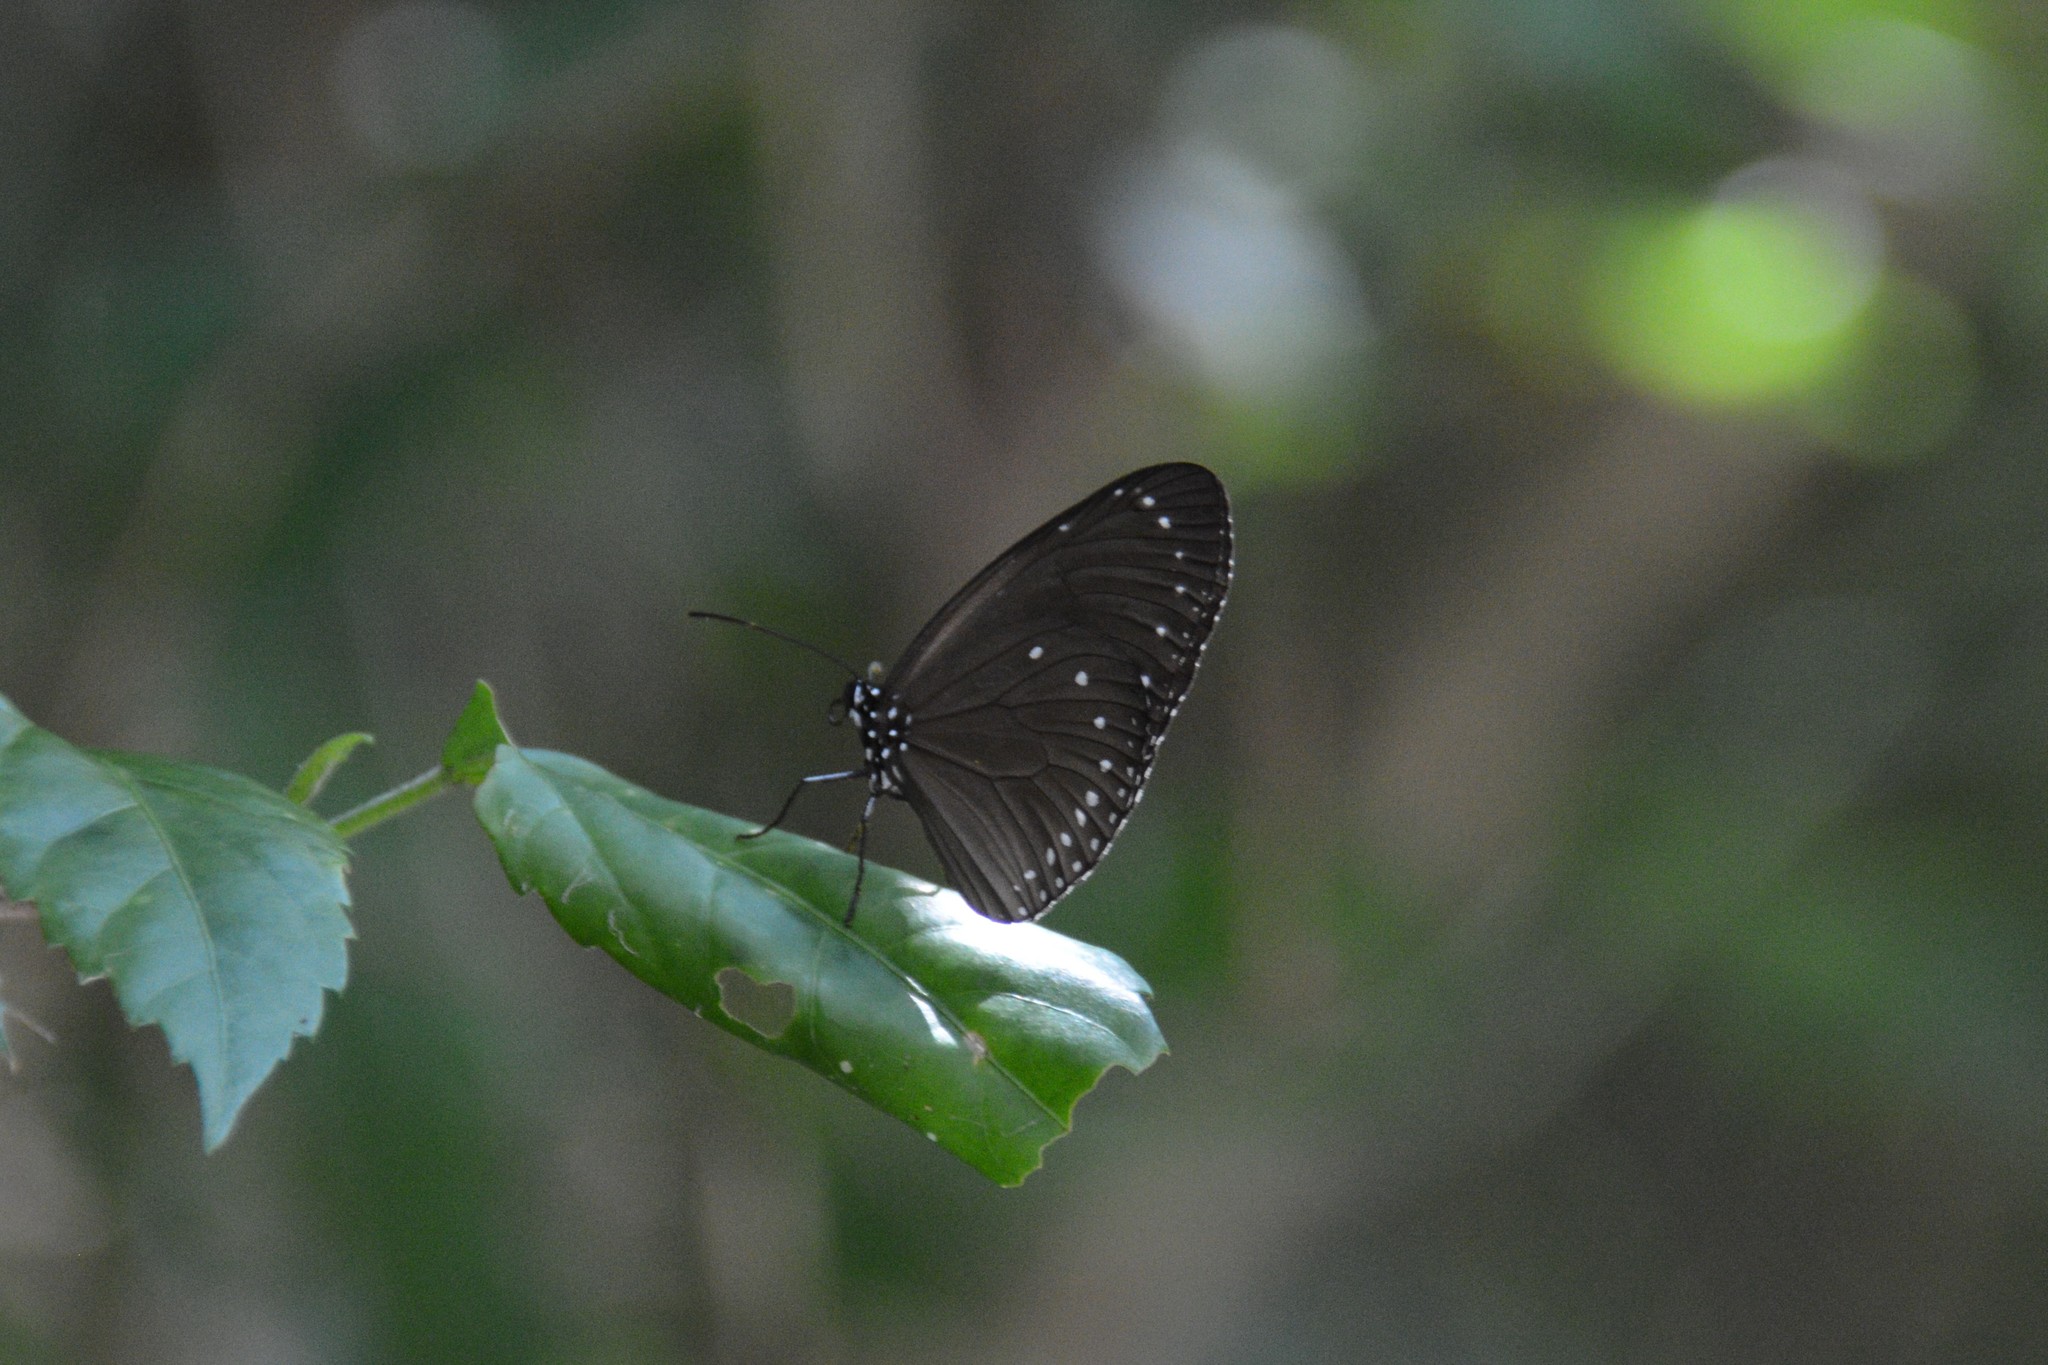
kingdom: Animalia
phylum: Arthropoda
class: Insecta
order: Lepidoptera
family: Nymphalidae
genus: Euploea
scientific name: Euploea tulliolus
